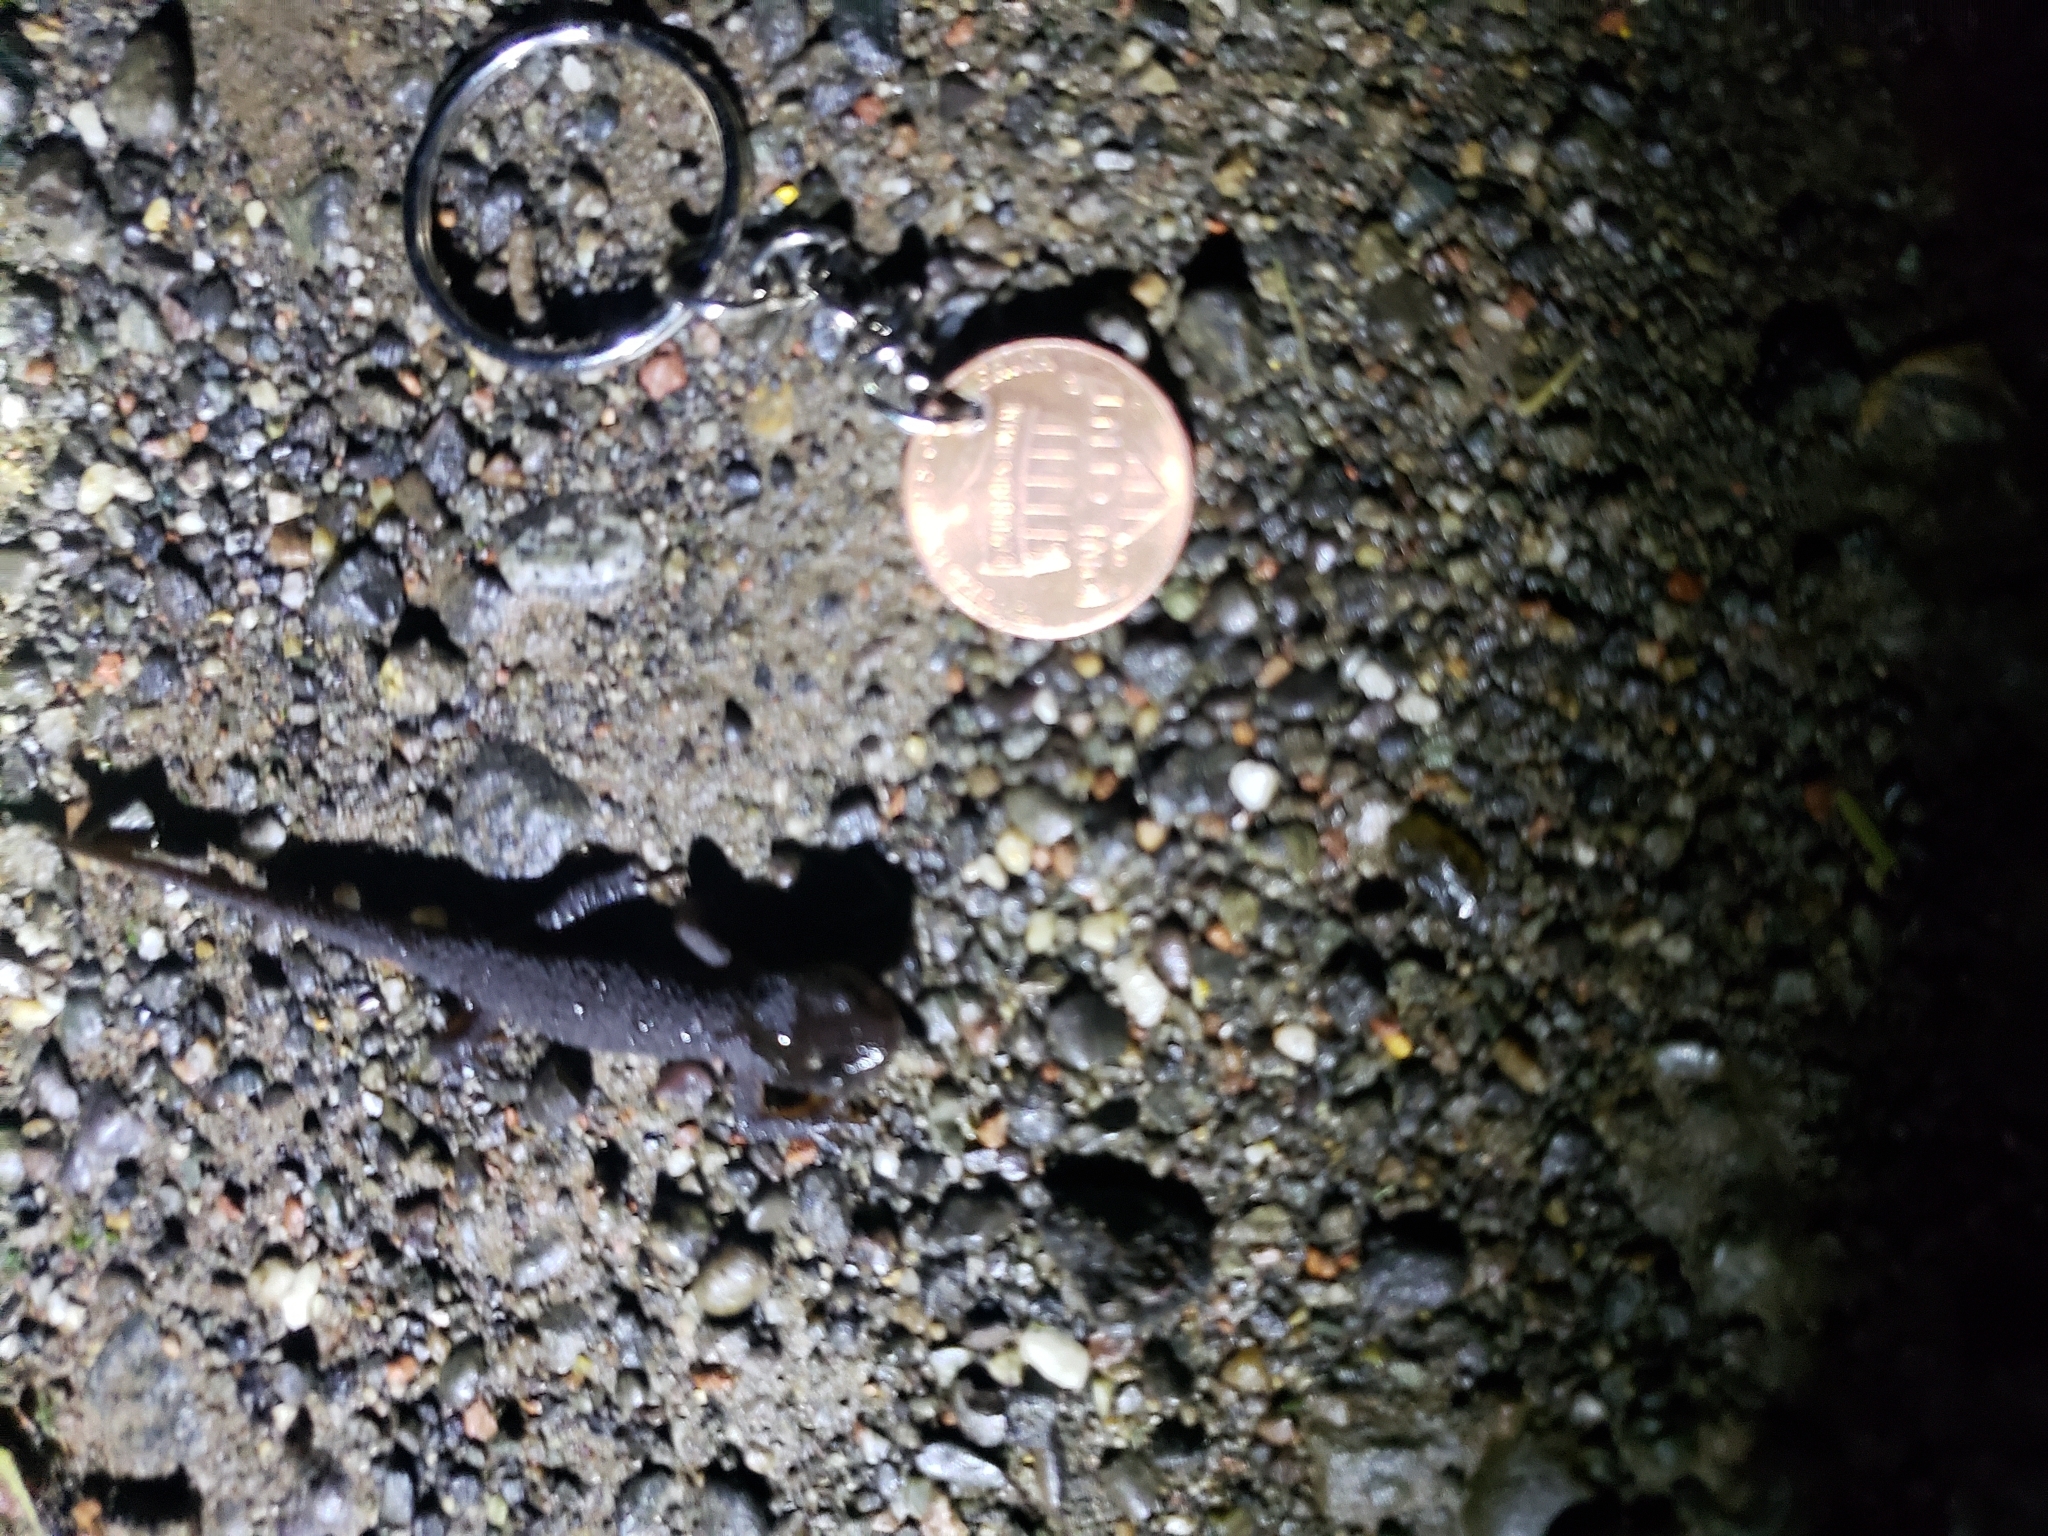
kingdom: Animalia
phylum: Chordata
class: Amphibia
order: Caudata
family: Salamandridae
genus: Taricha
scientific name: Taricha granulosa
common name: Roughskin newt
